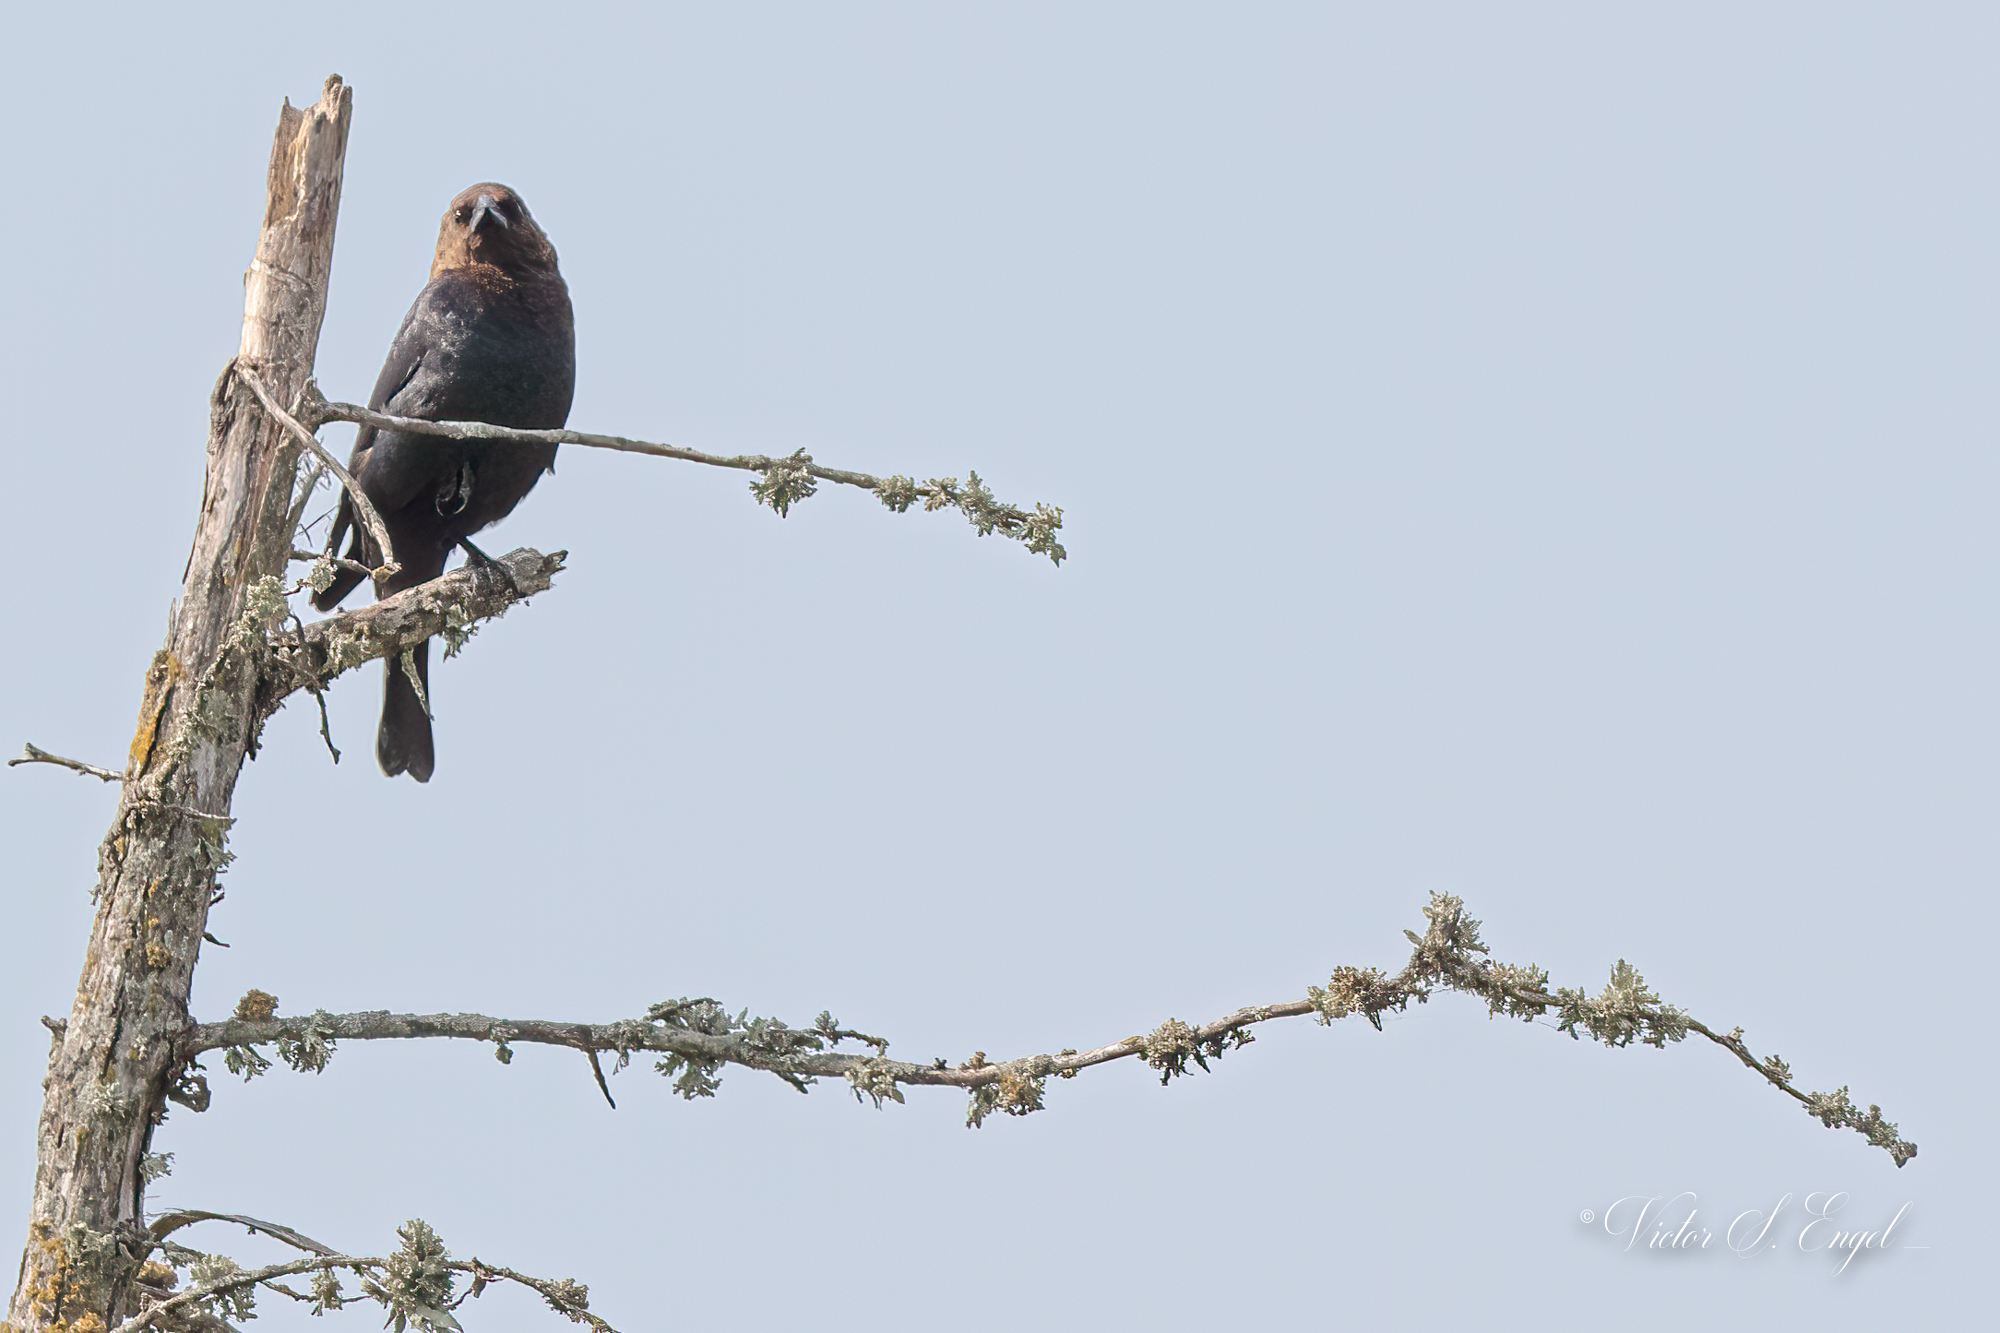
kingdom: Animalia
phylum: Chordata
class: Aves
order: Passeriformes
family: Icteridae
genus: Molothrus
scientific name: Molothrus ater
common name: Brown-headed cowbird
